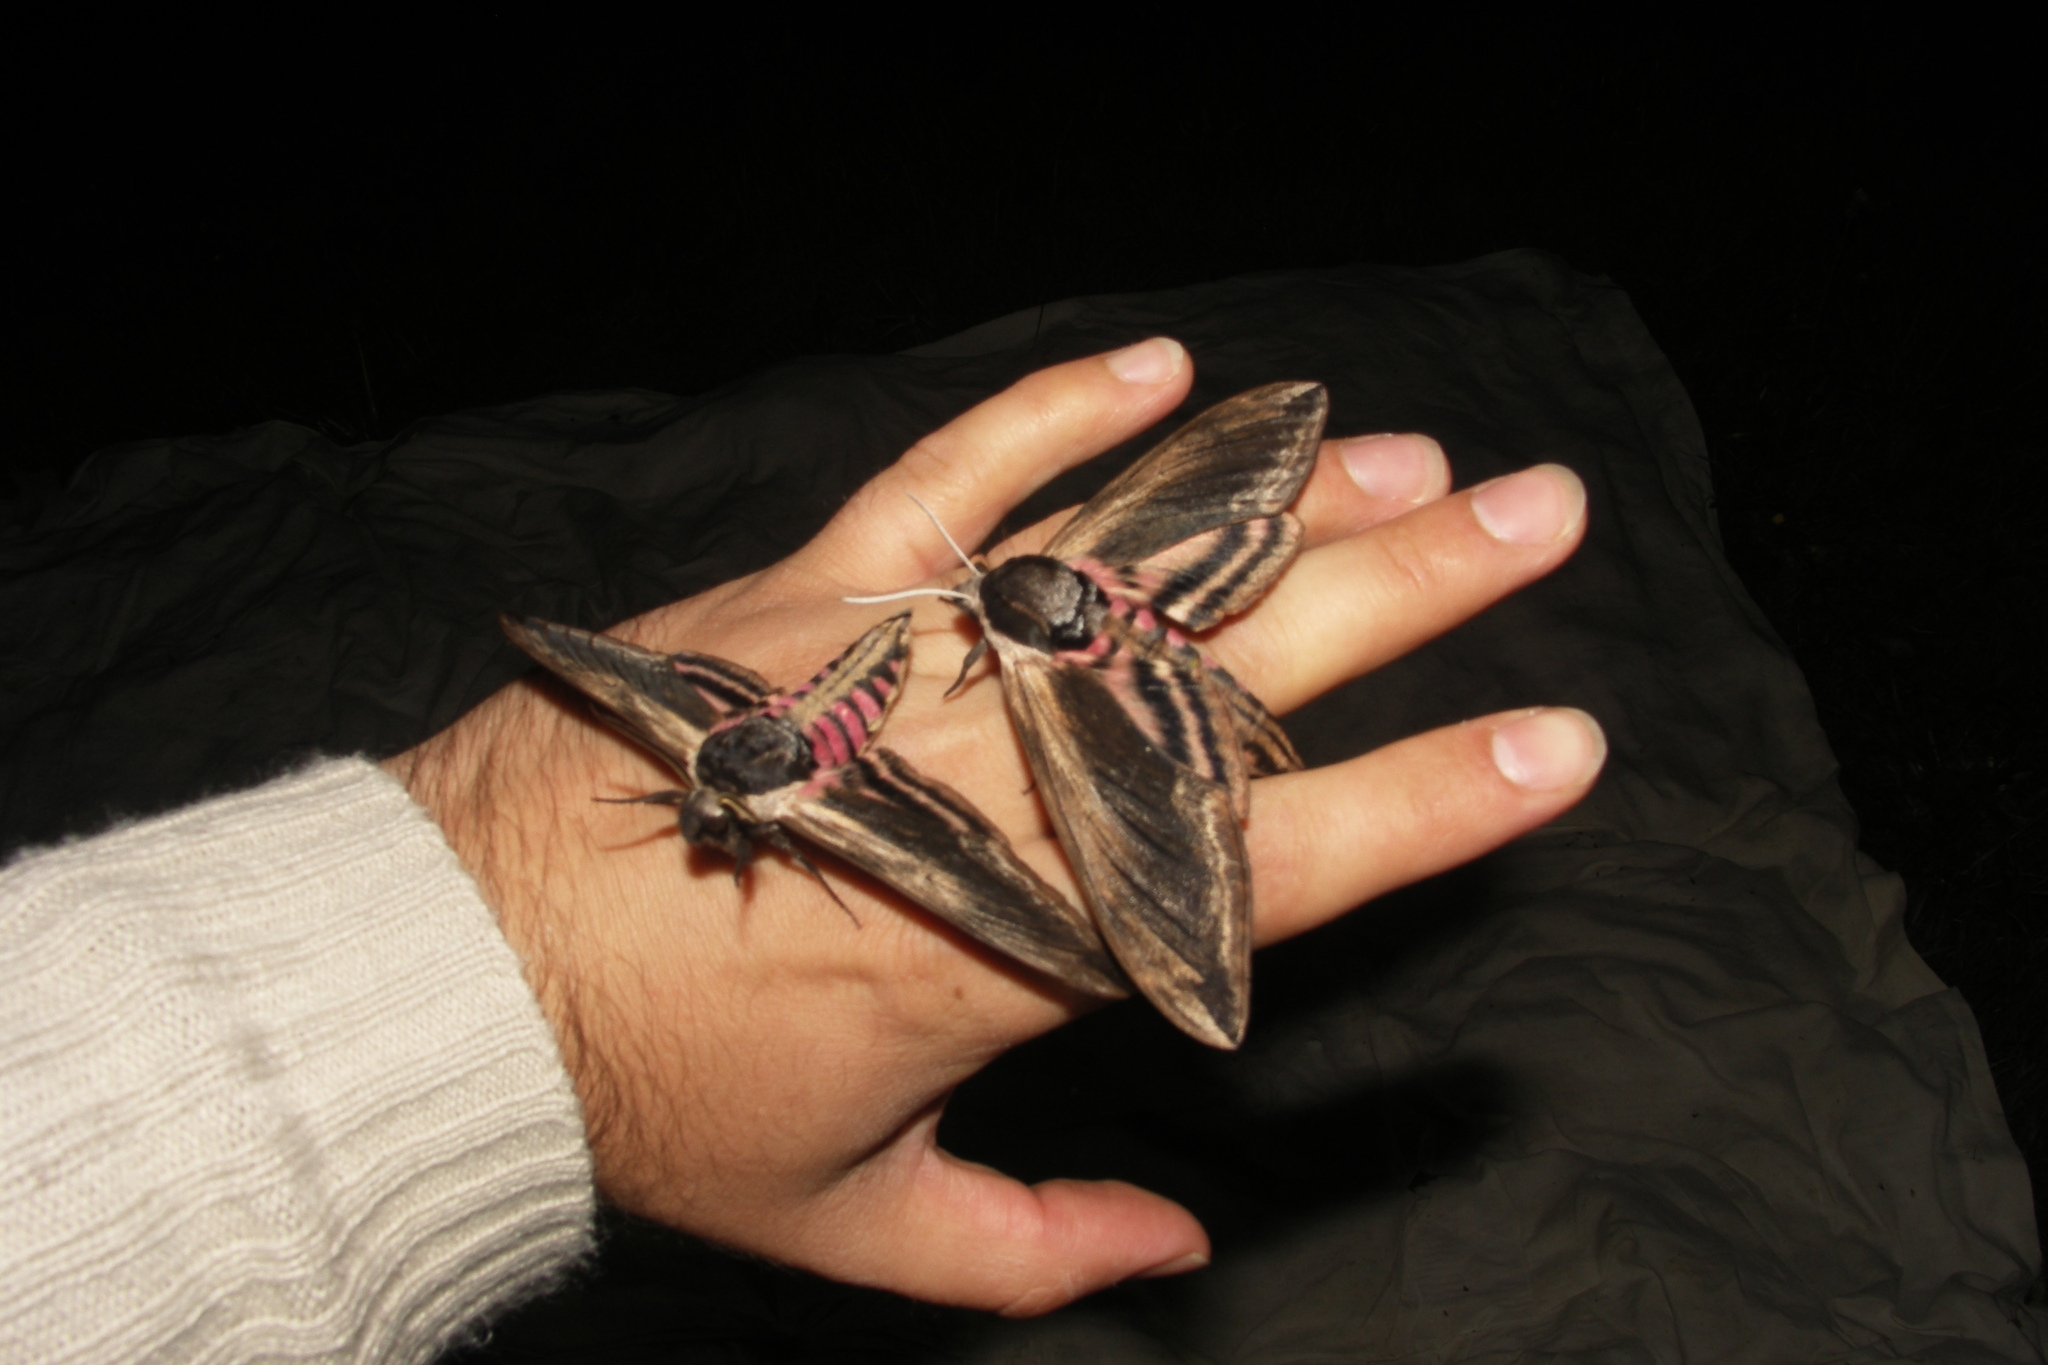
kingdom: Animalia
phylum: Arthropoda
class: Insecta
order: Lepidoptera
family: Sphingidae
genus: Sphinx
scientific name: Sphinx ligustri
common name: Privet hawk-moth
